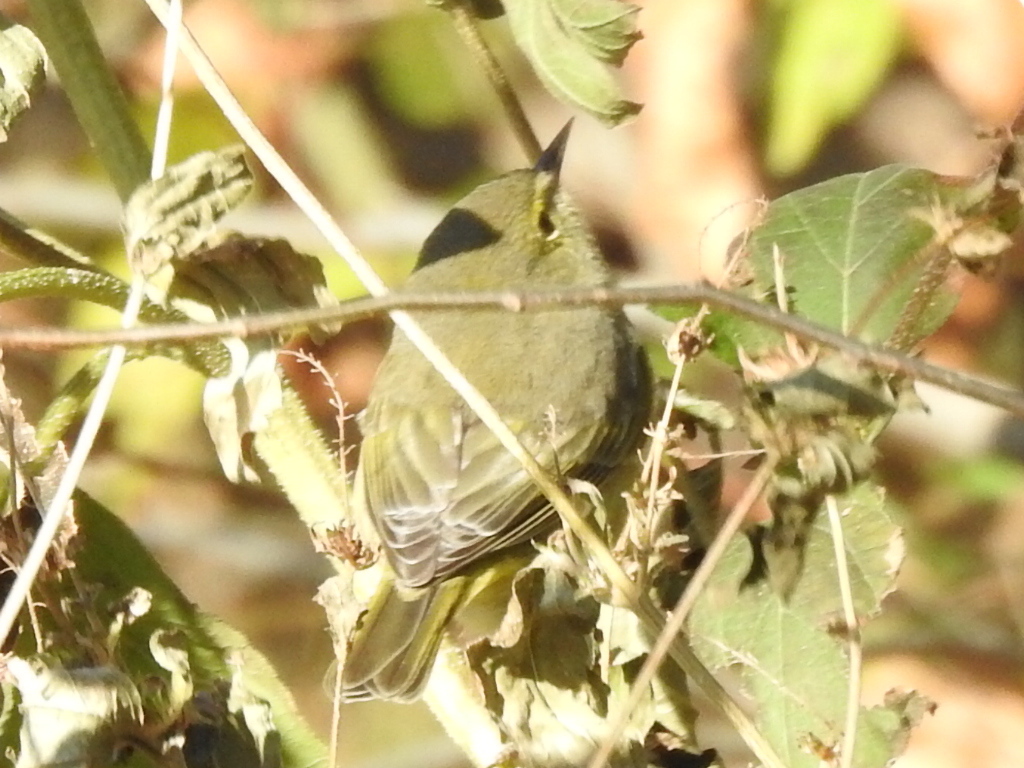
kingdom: Animalia
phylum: Chordata
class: Aves
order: Passeriformes
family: Parulidae
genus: Leiothlypis
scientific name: Leiothlypis celata
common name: Orange-crowned warbler
